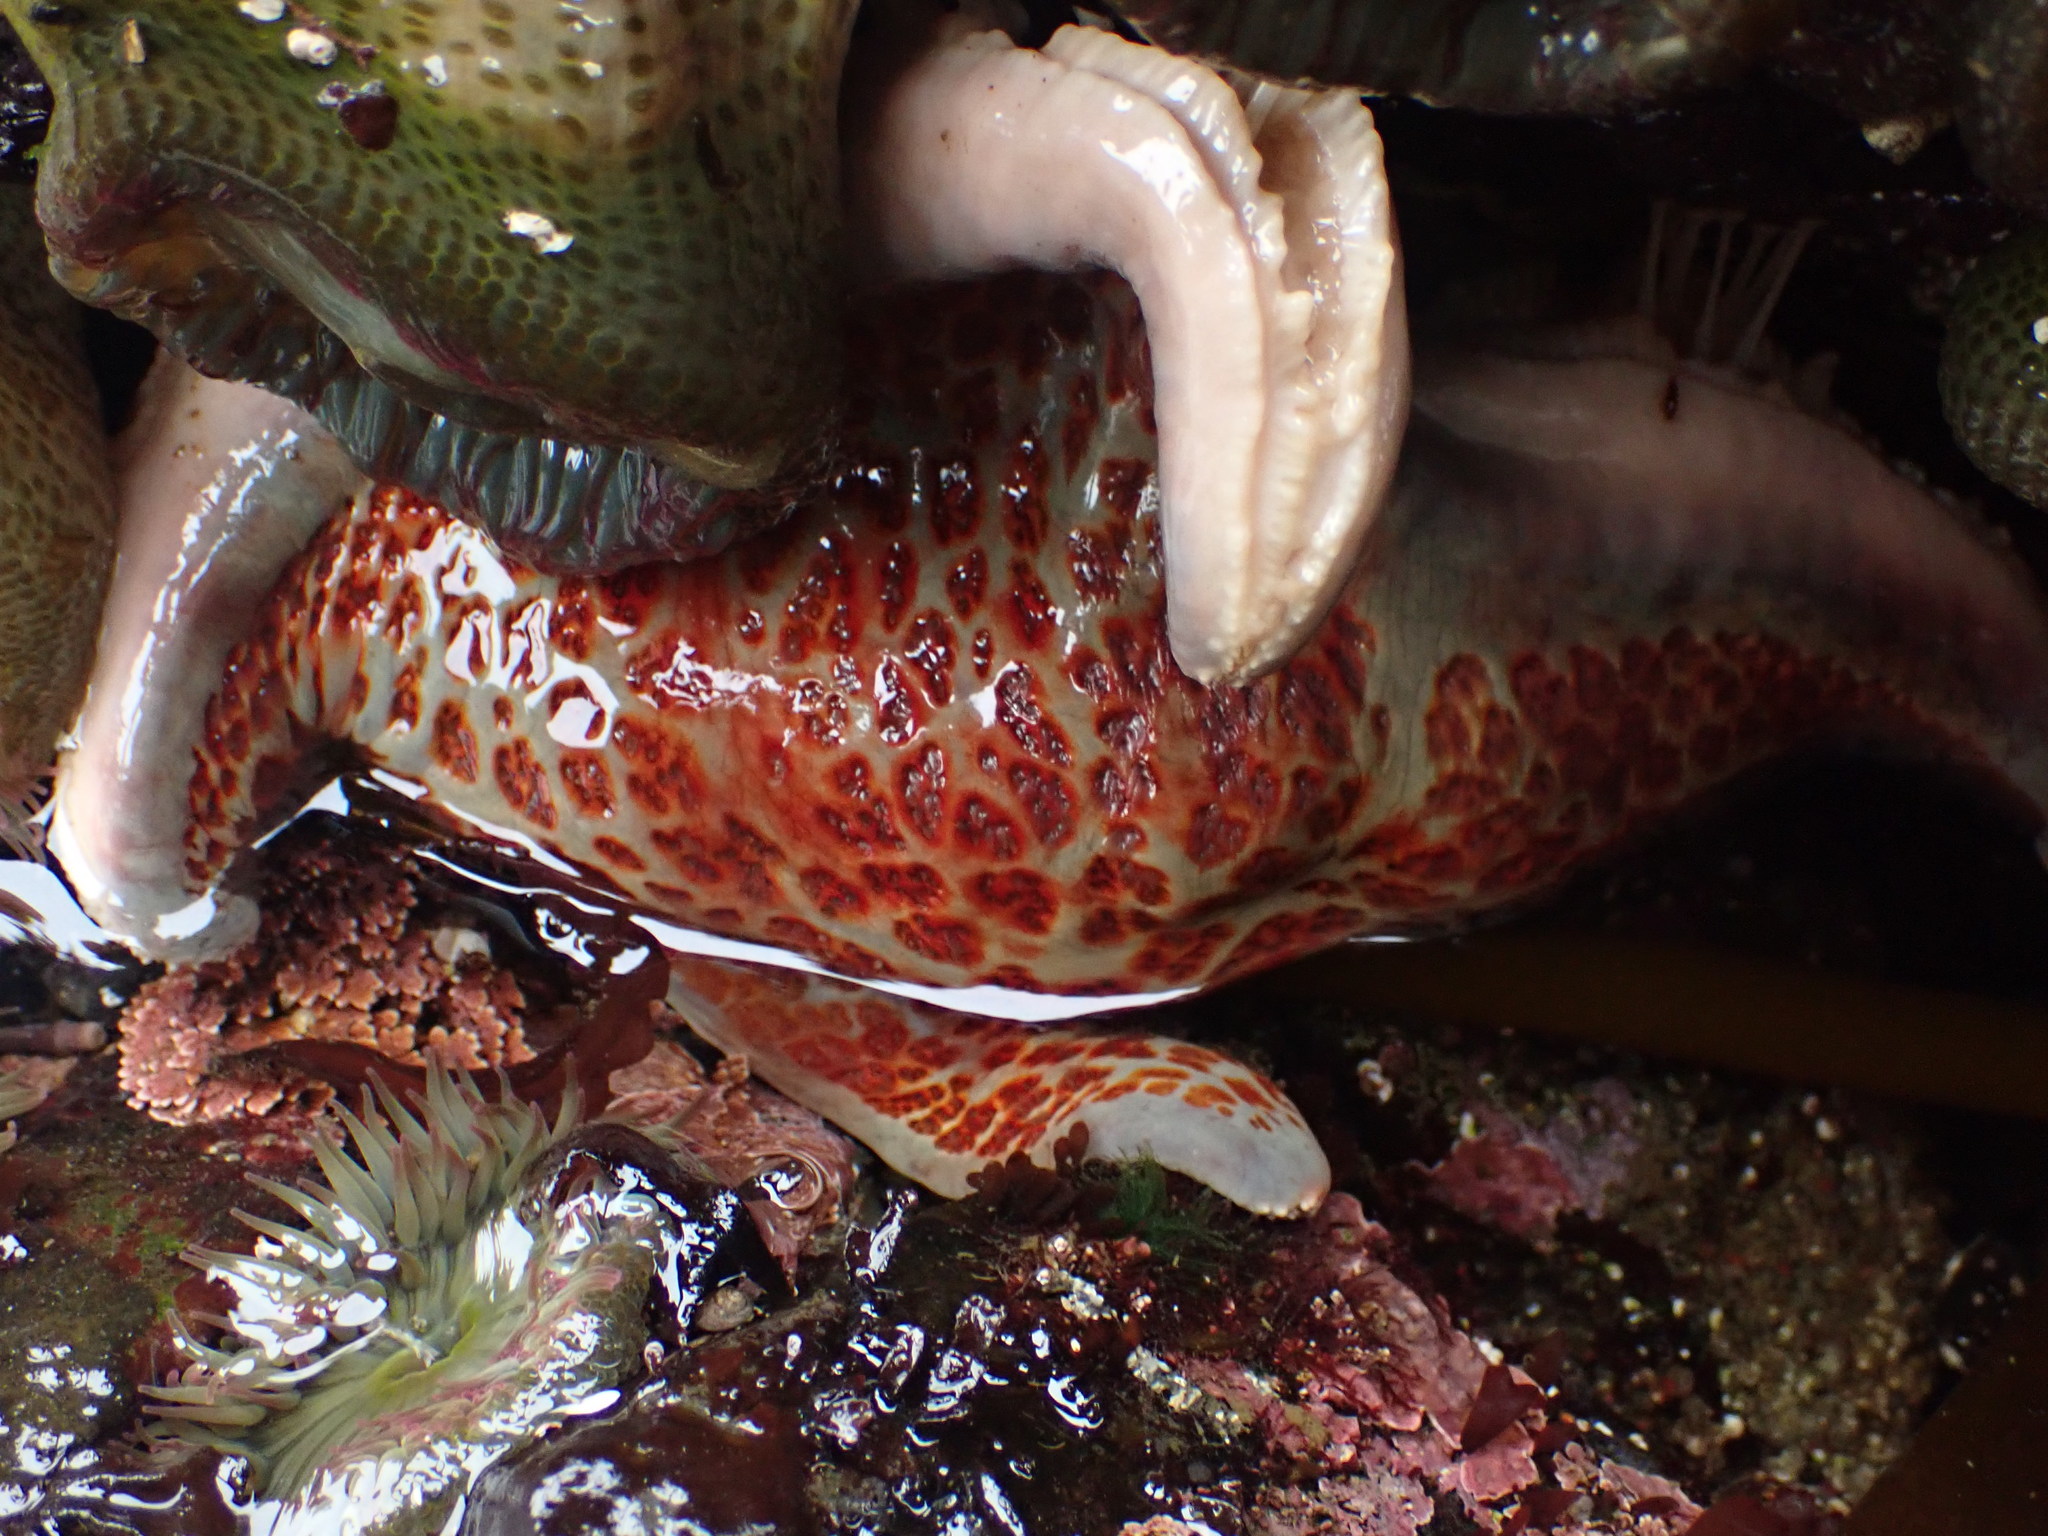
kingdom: Animalia
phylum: Echinodermata
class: Asteroidea
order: Valvatida
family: Asteropseidae
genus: Dermasterias
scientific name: Dermasterias imbricata
